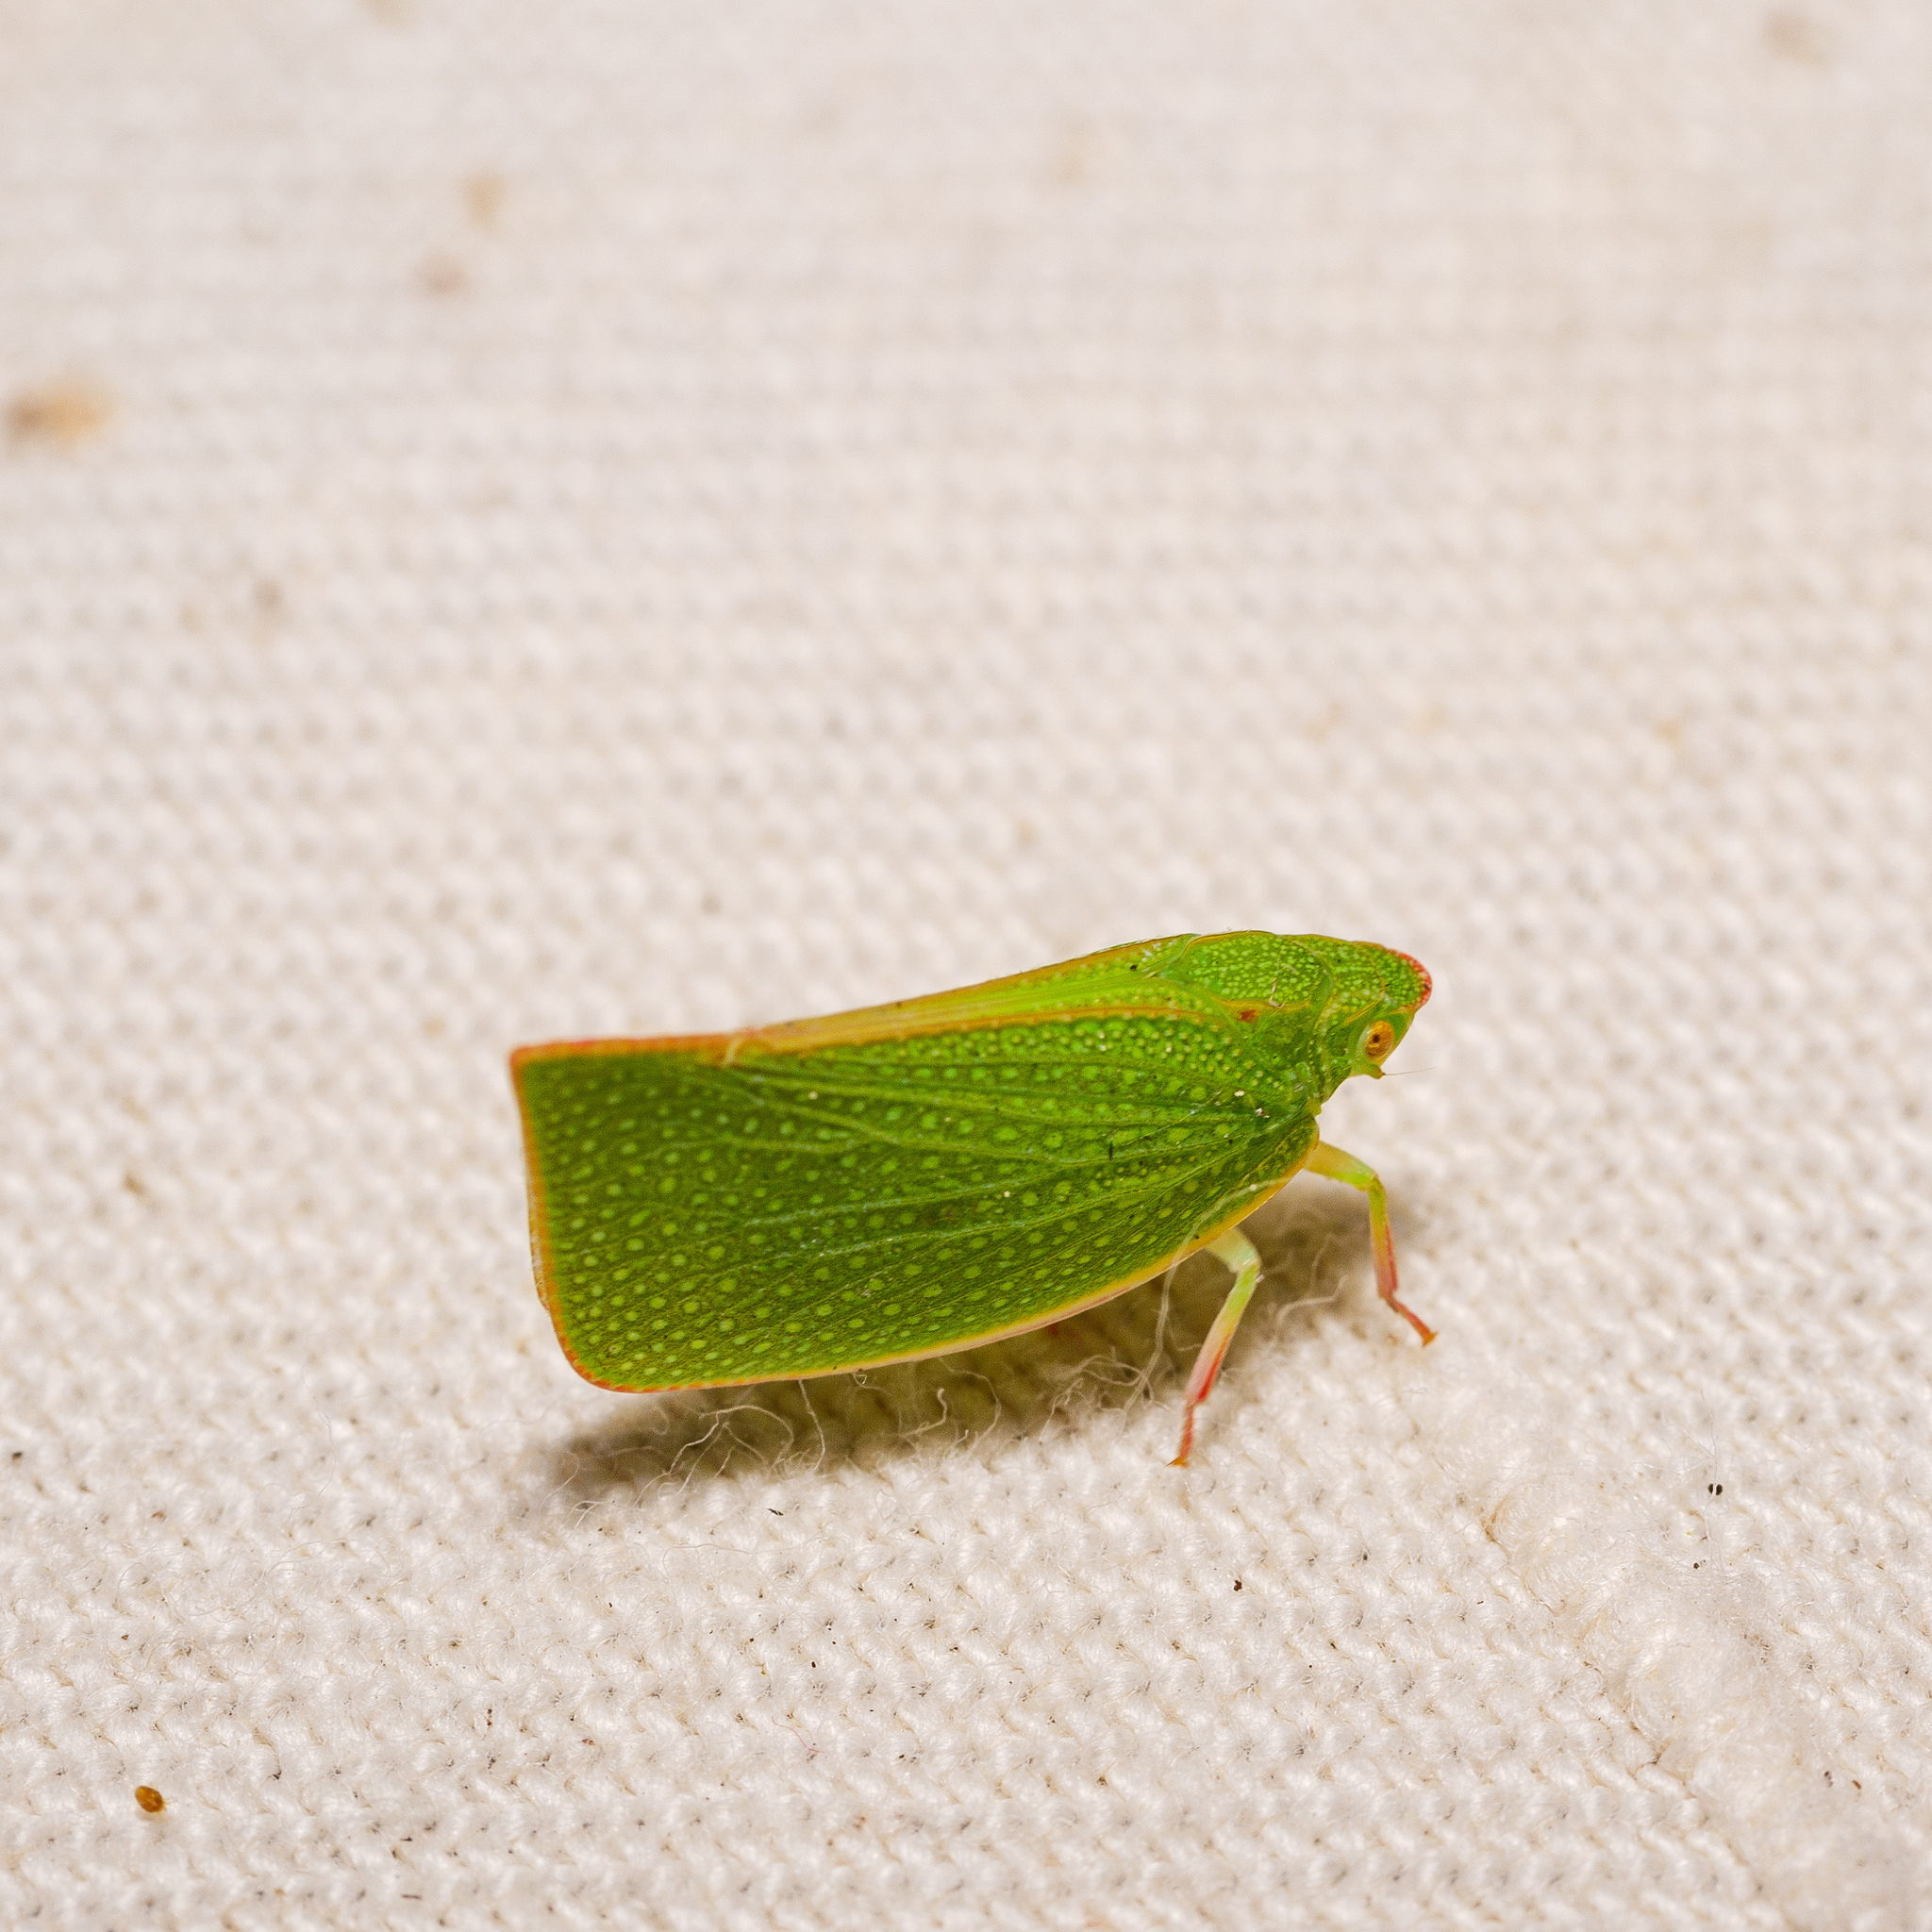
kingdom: Animalia
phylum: Arthropoda
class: Insecta
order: Hemiptera
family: Flatidae
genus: Siphanta
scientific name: Siphanta acuta
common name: Torpedo bug
